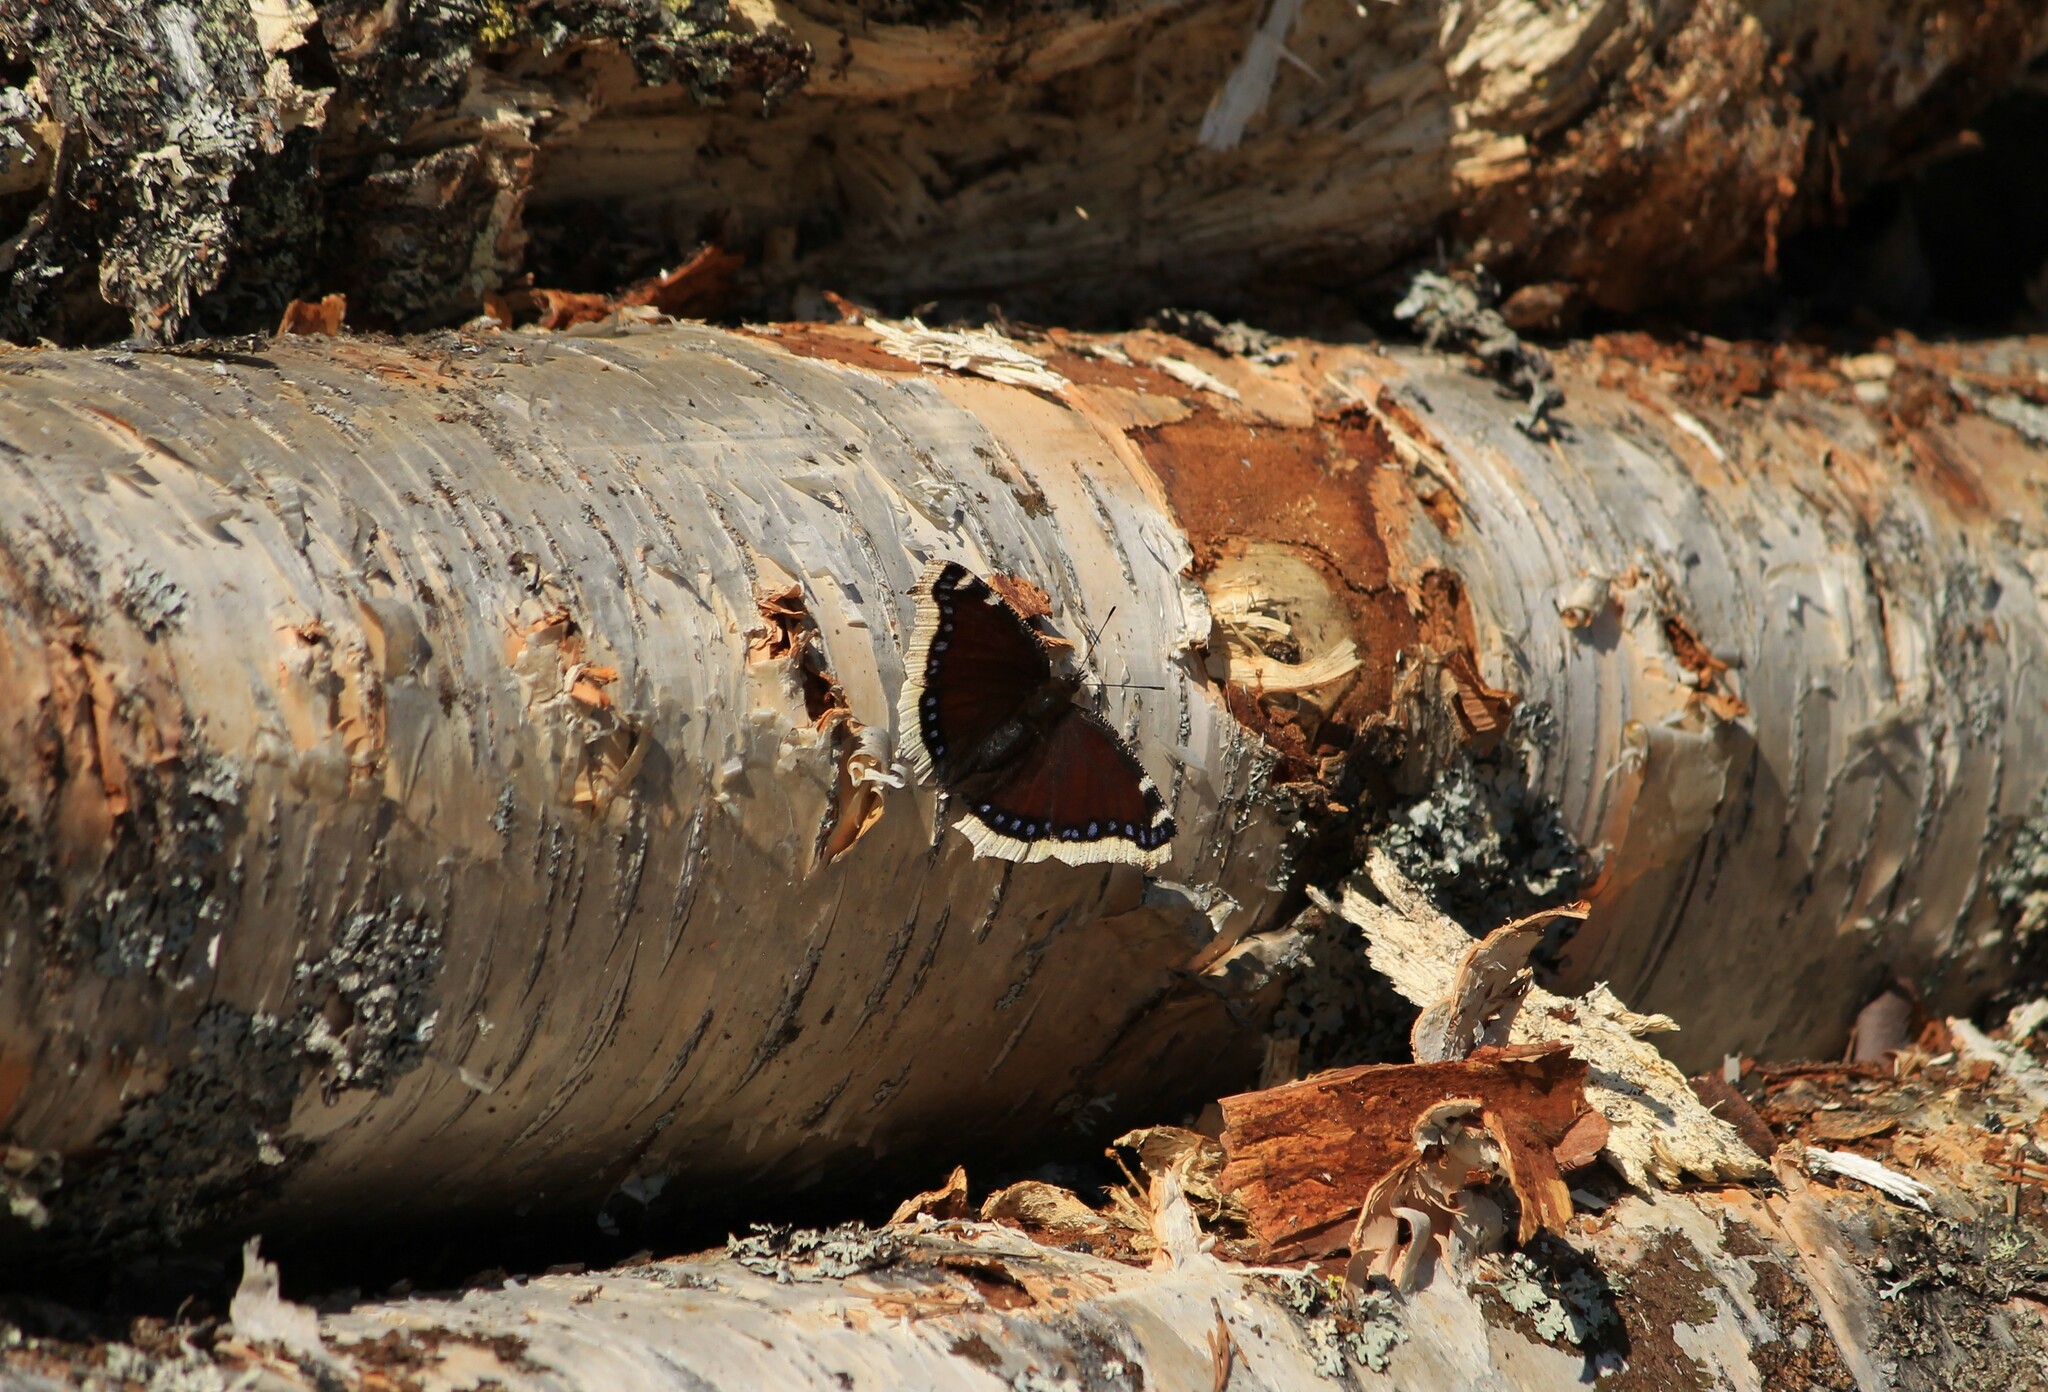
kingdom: Animalia
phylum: Arthropoda
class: Insecta
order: Lepidoptera
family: Nymphalidae
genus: Nymphalis
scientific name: Nymphalis antiopa
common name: Camberwell beauty
